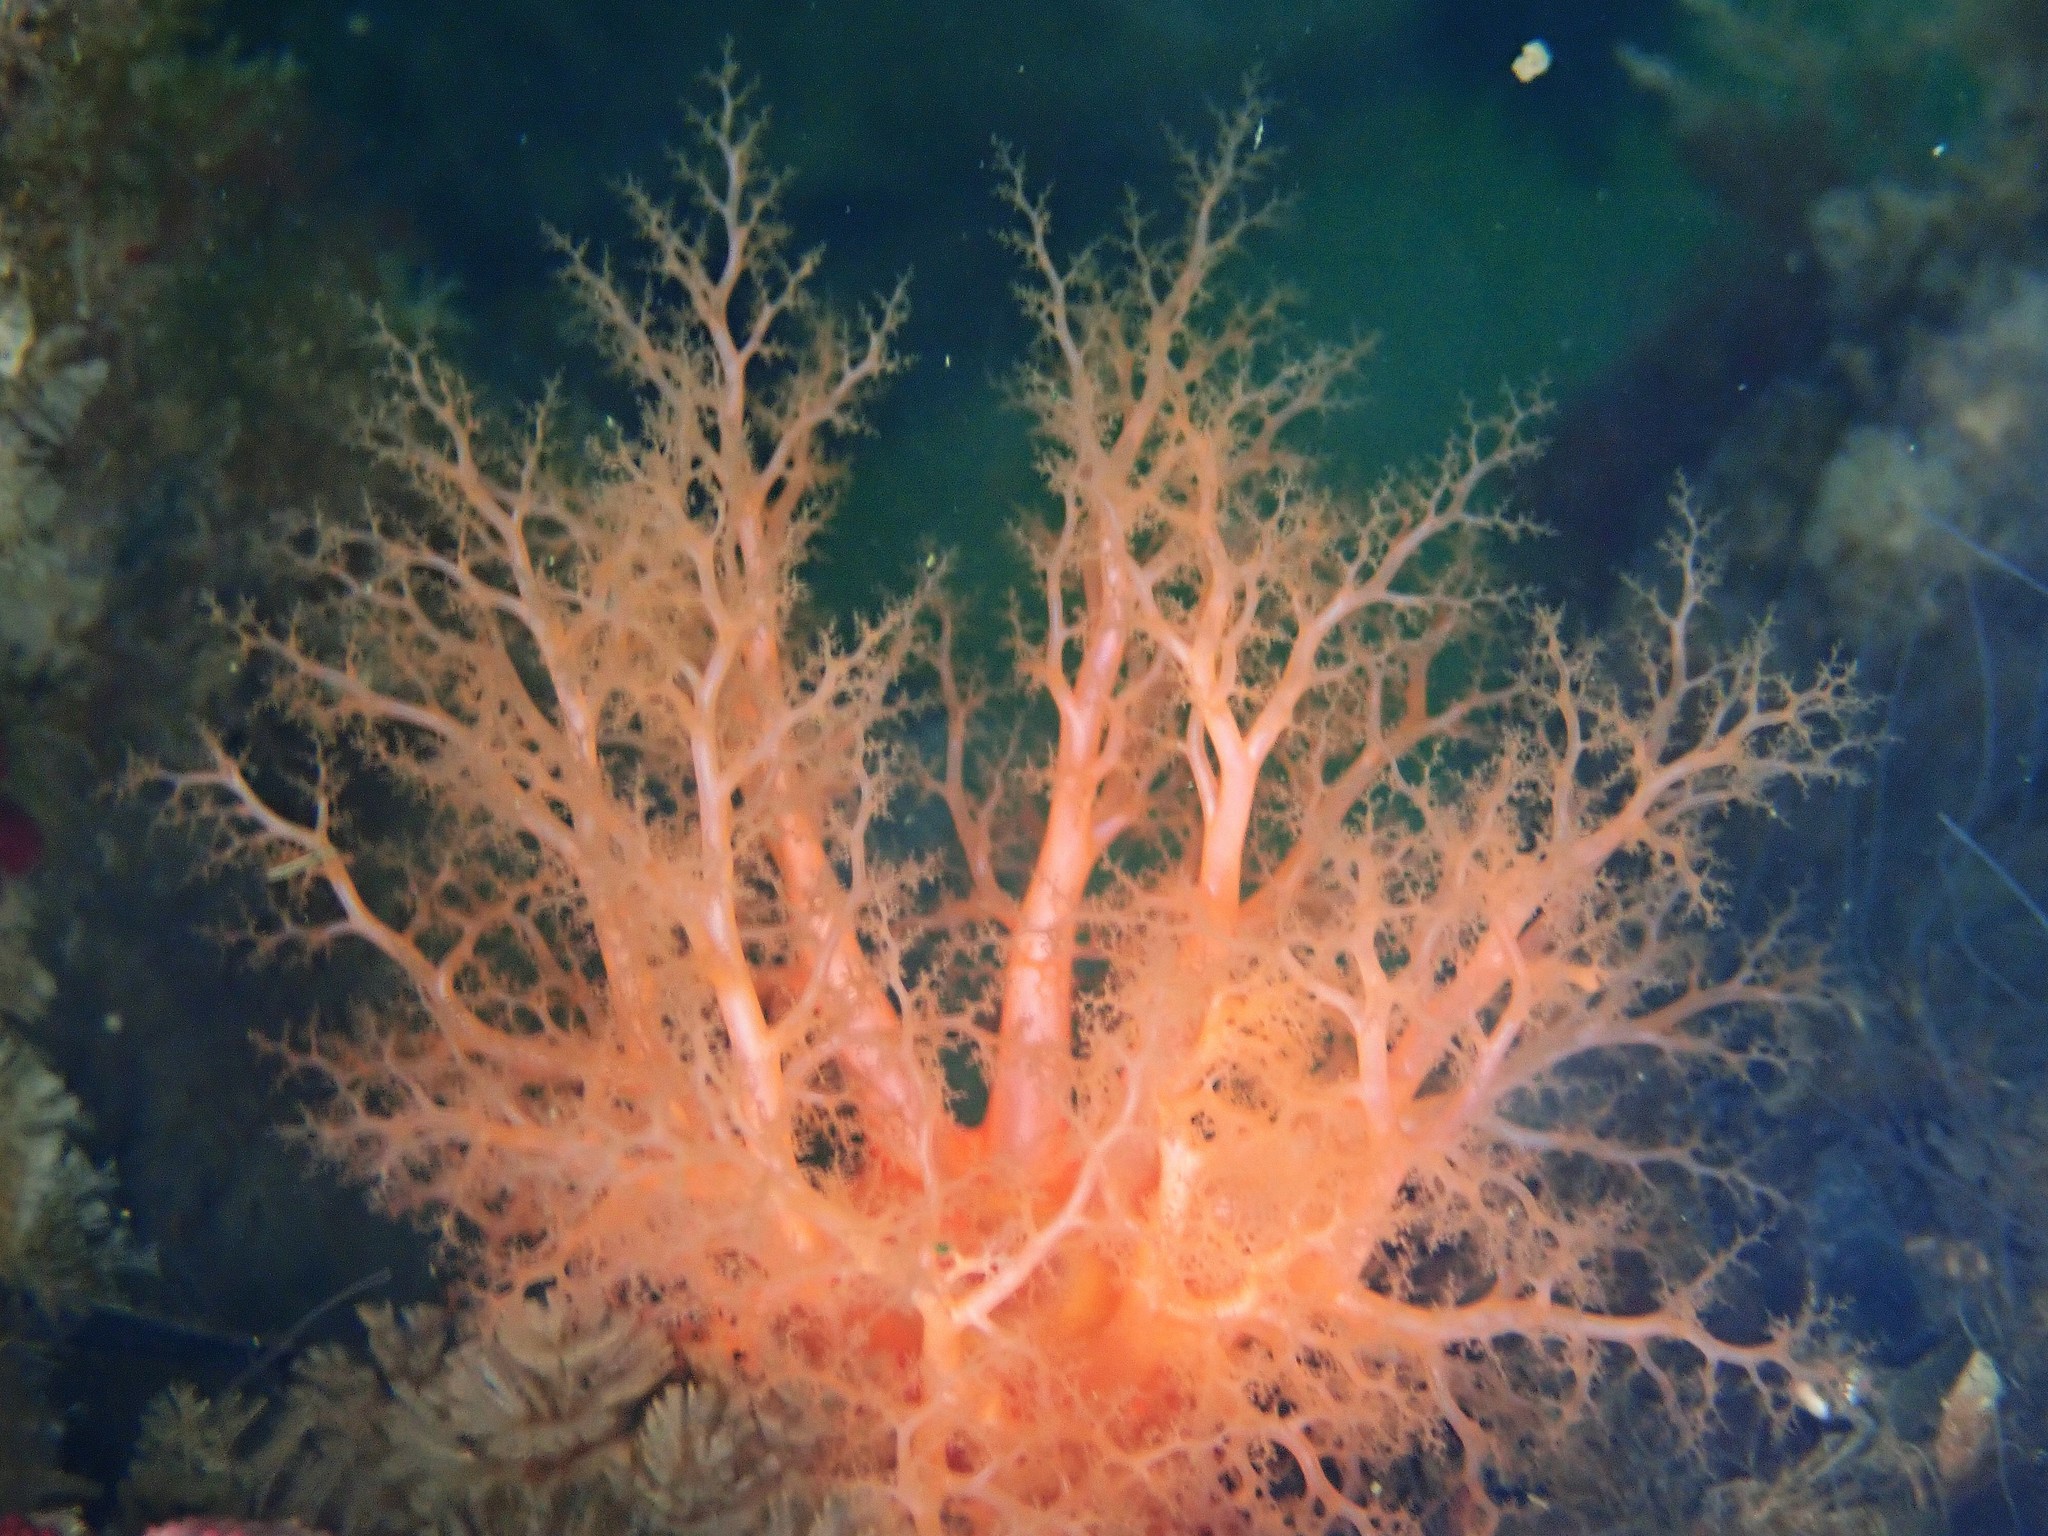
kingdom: Animalia
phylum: Echinodermata
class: Holothuroidea
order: Dendrochirotida
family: Cucumariidae
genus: Cucumaria
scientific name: Cucumaria miniata
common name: Orange sea cucumber
